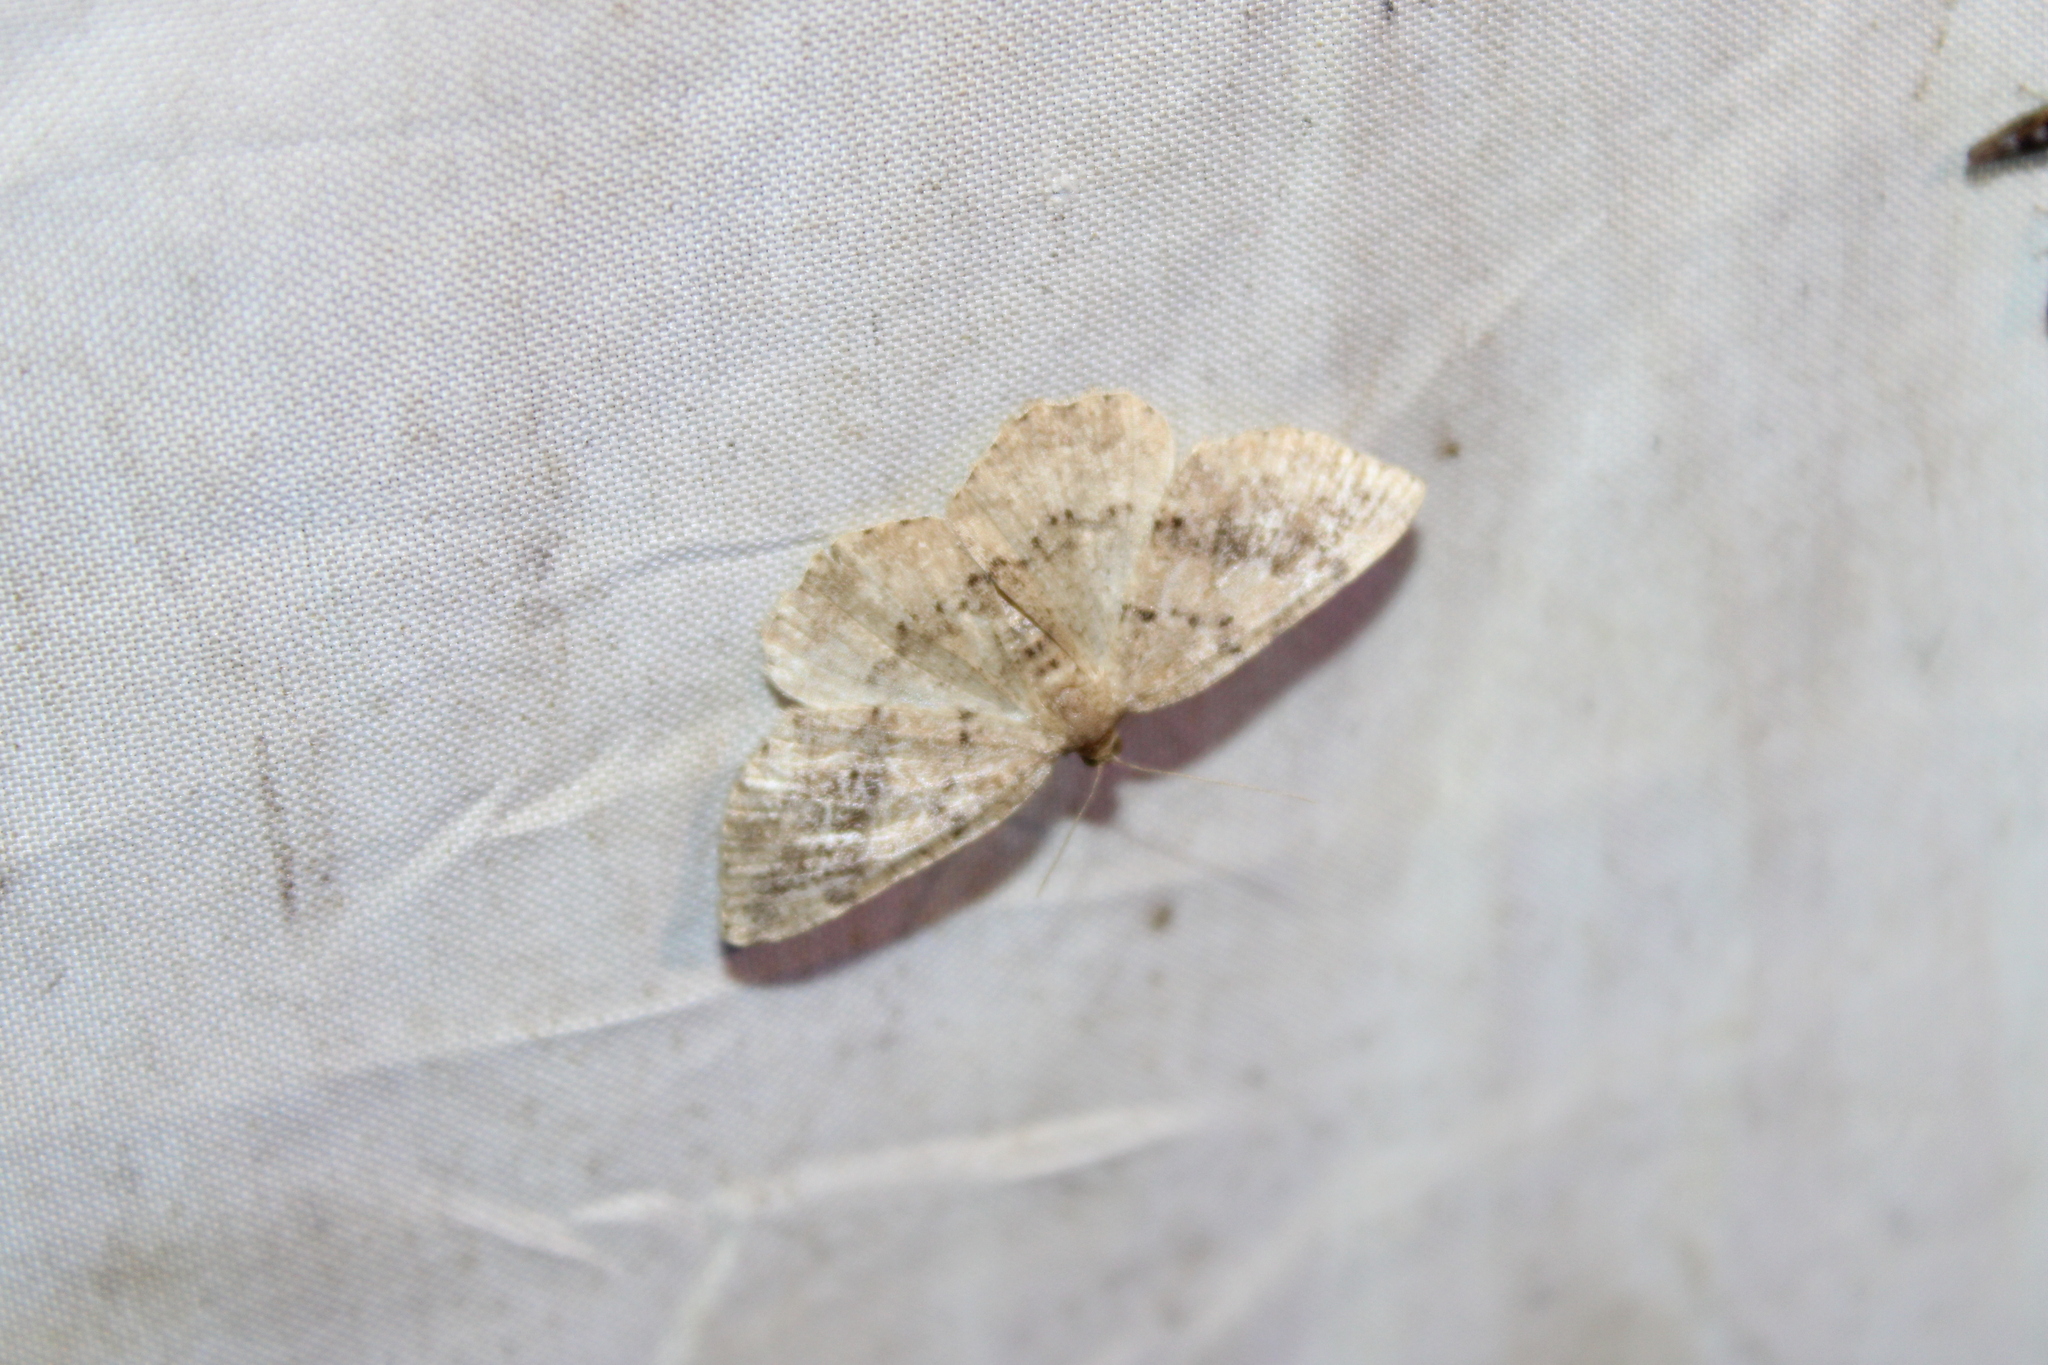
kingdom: Animalia
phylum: Arthropoda
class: Insecta
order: Lepidoptera
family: Geometridae
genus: Homochlodes
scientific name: Homochlodes fritillaria
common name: Pale homochlodes
